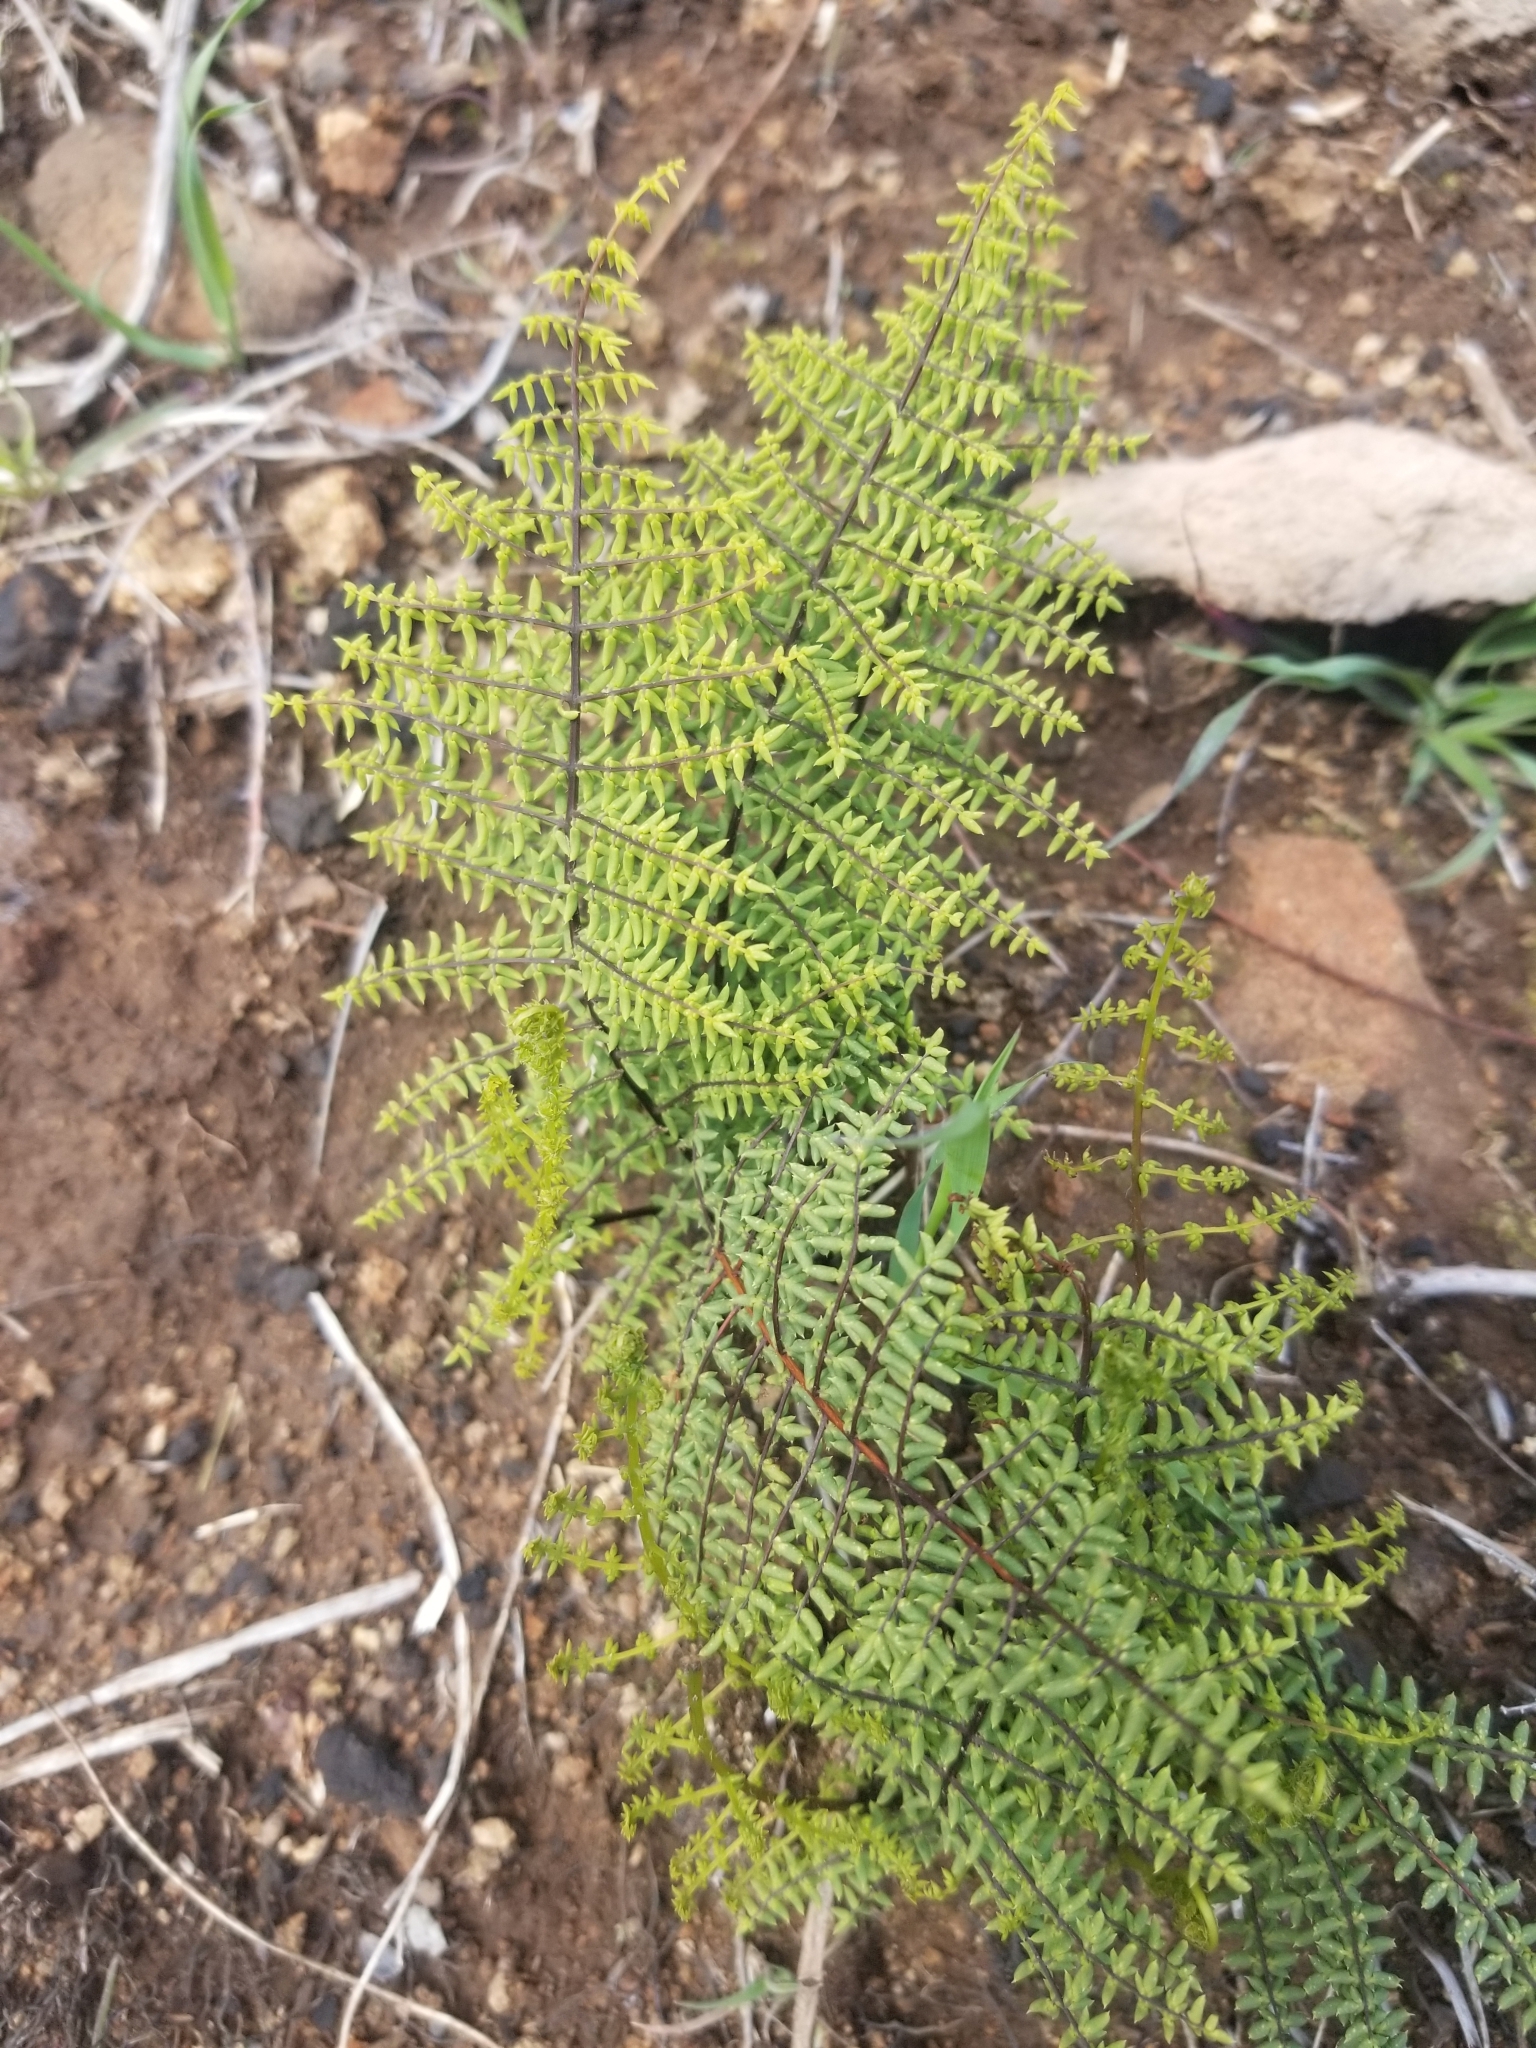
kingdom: Plantae
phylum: Tracheophyta
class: Polypodiopsida
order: Polypodiales
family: Pteridaceae
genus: Pellaea
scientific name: Pellaea mucronata
